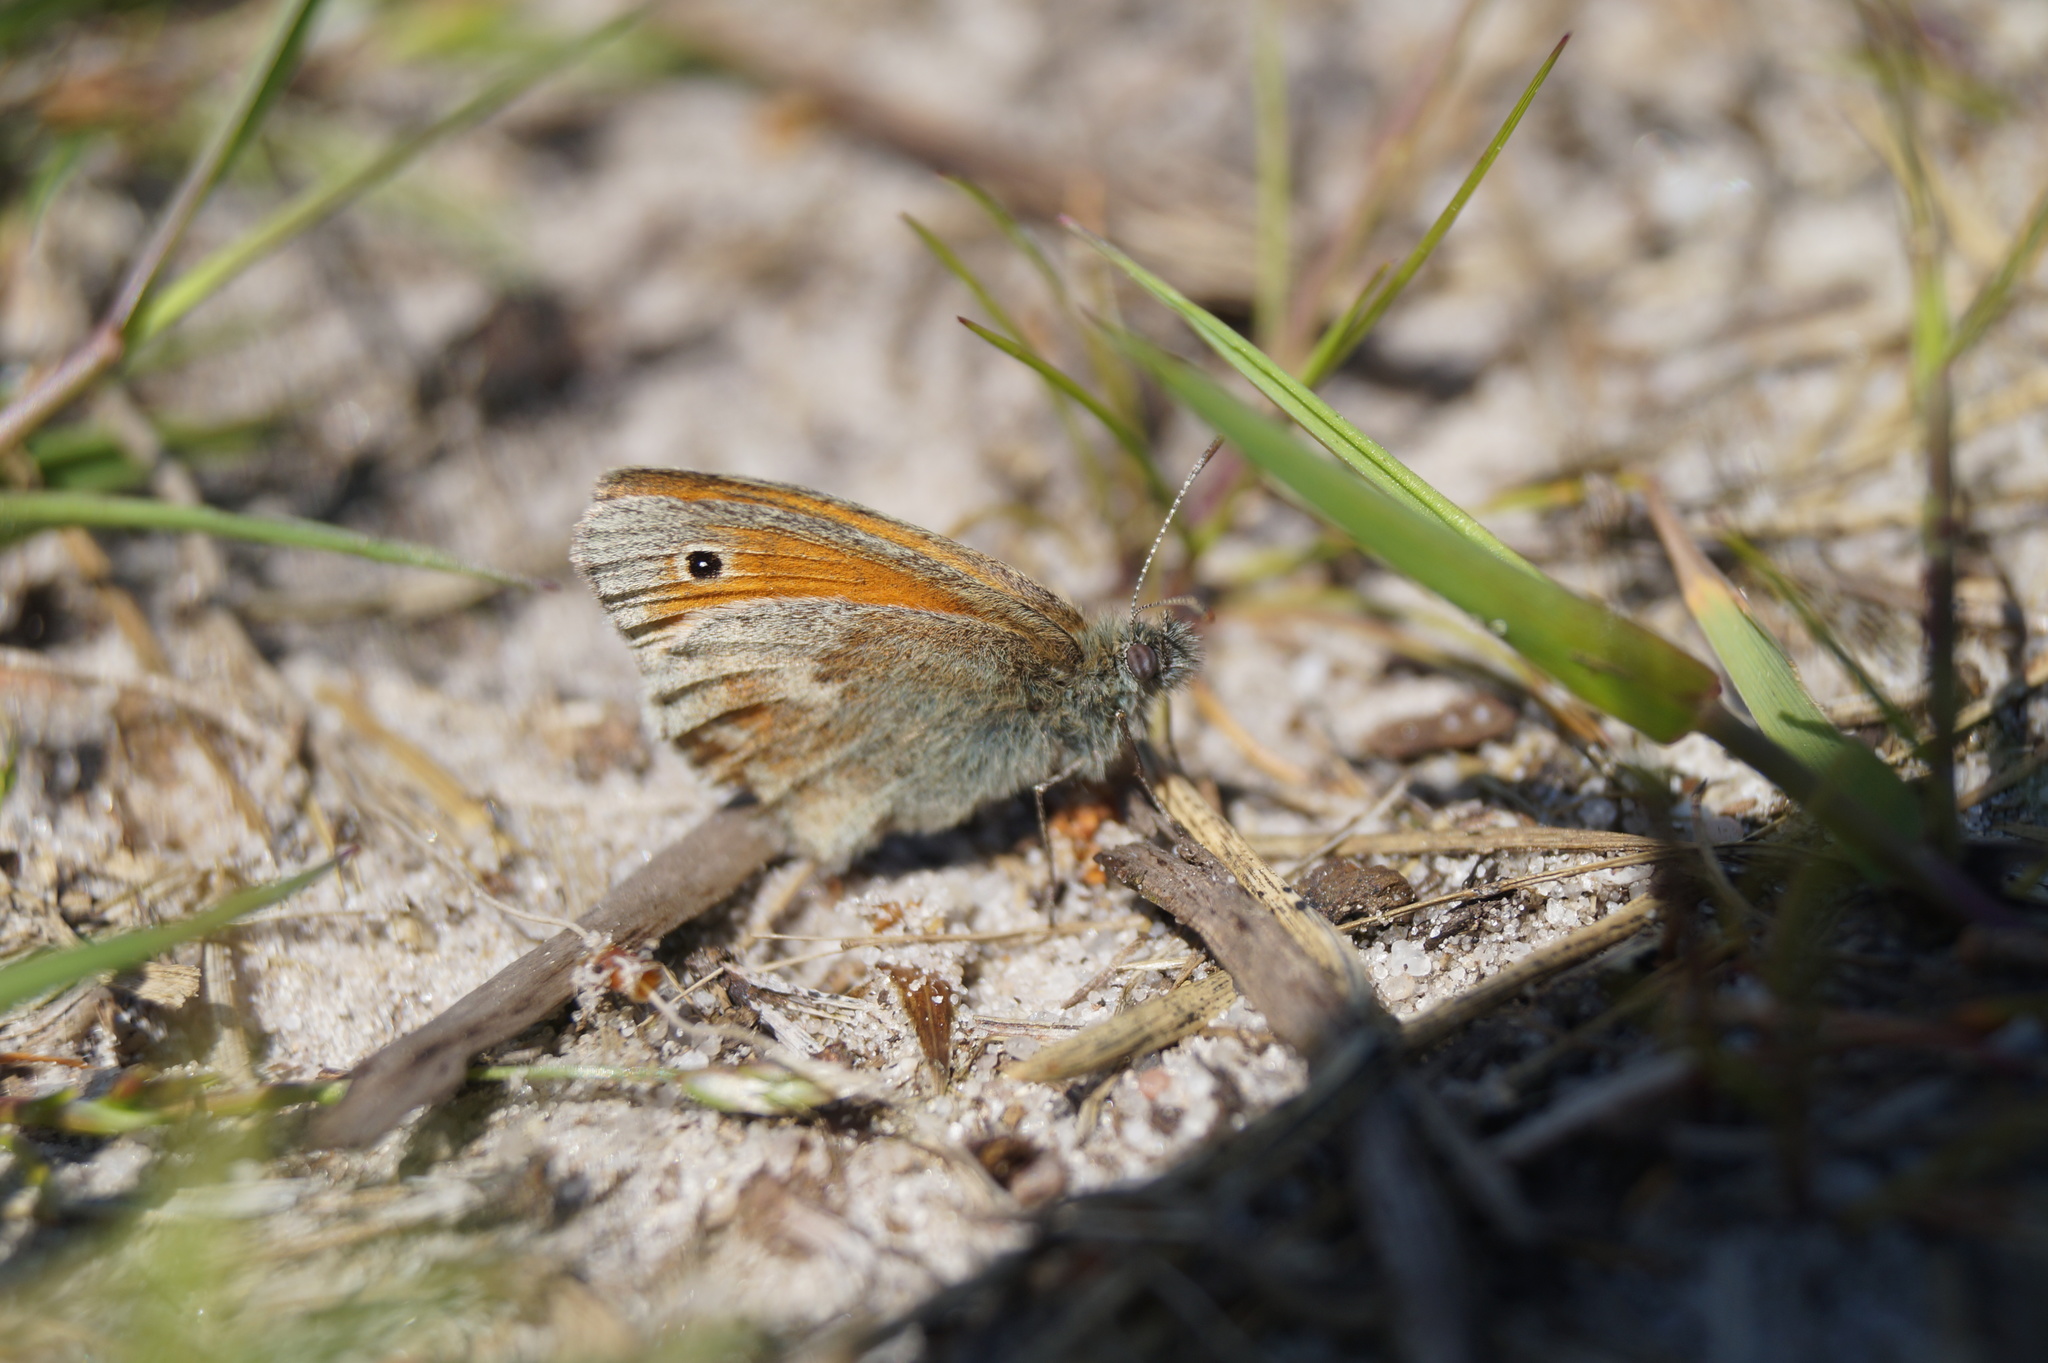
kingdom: Animalia
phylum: Arthropoda
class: Insecta
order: Lepidoptera
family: Nymphalidae
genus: Coenonympha
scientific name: Coenonympha pamphilus
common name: Small heath
